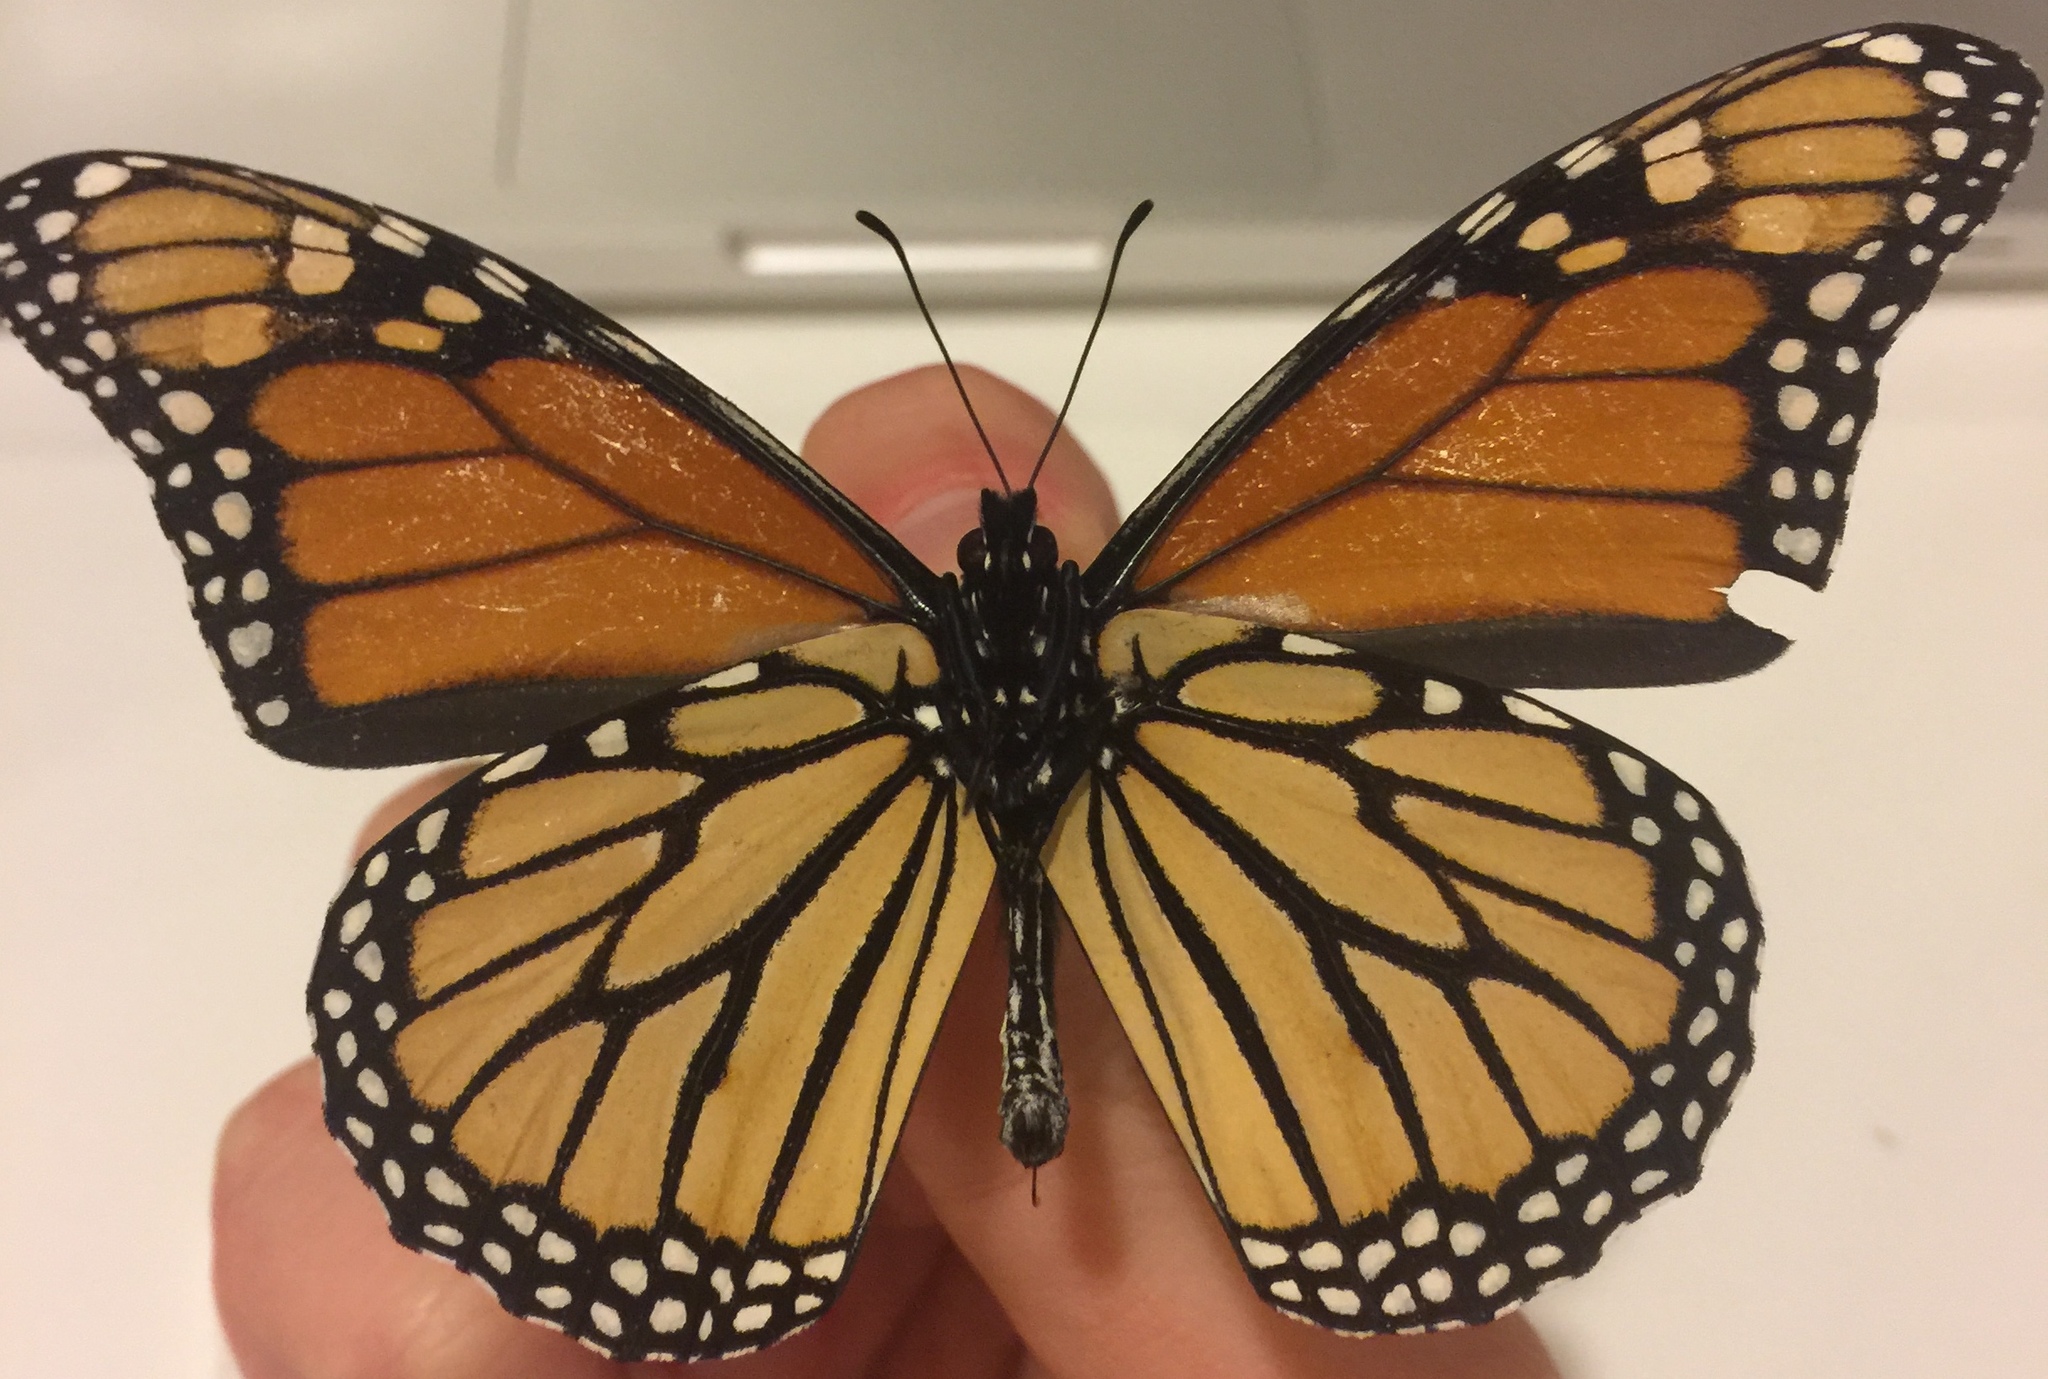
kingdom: Animalia
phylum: Arthropoda
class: Insecta
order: Lepidoptera
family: Nymphalidae
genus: Danaus
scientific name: Danaus plexippus
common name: Monarch
